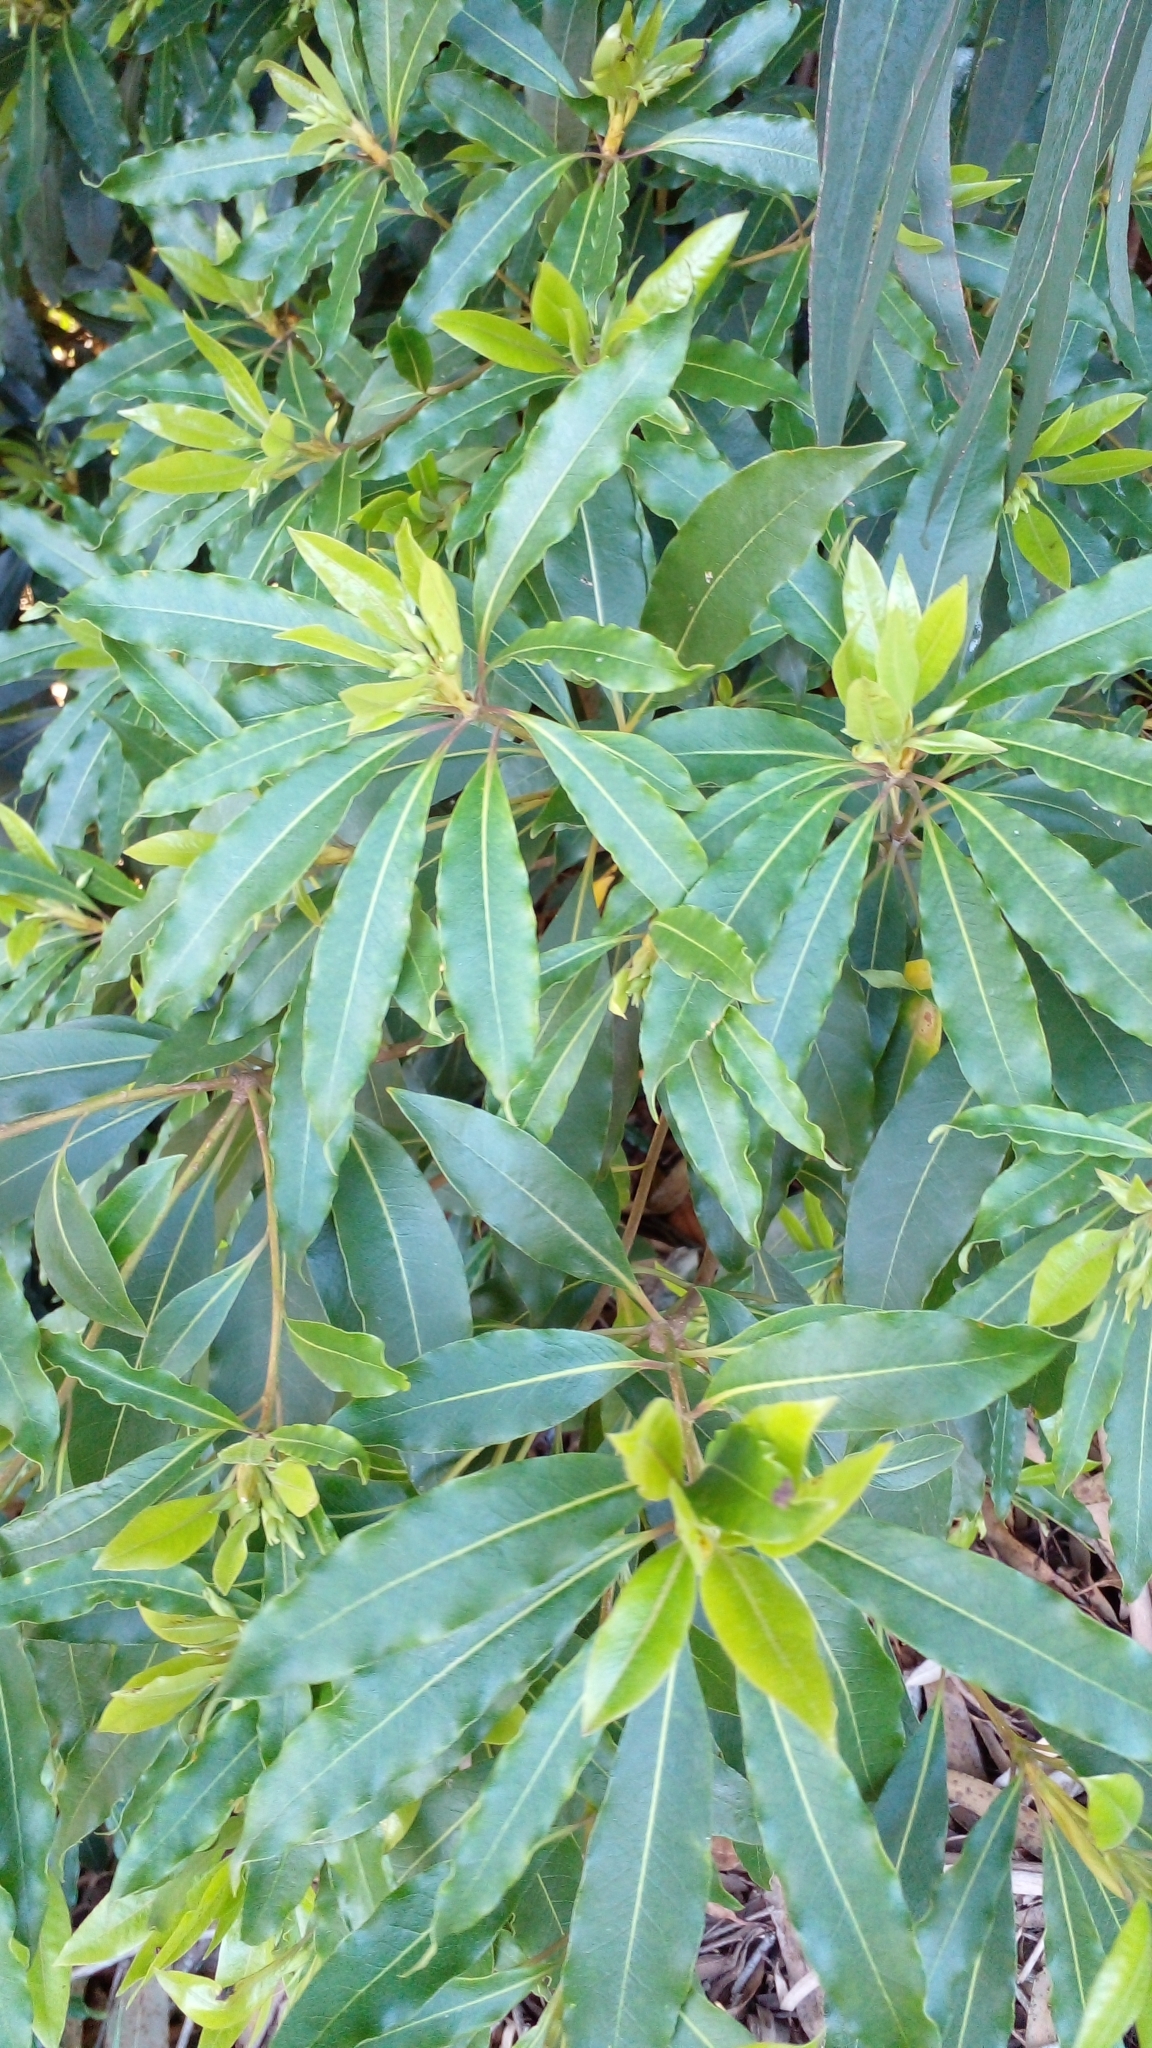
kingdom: Plantae
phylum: Tracheophyta
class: Magnoliopsida
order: Apiales
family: Pittosporaceae
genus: Pittosporum
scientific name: Pittosporum undulatum
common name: Australian cheesewood
